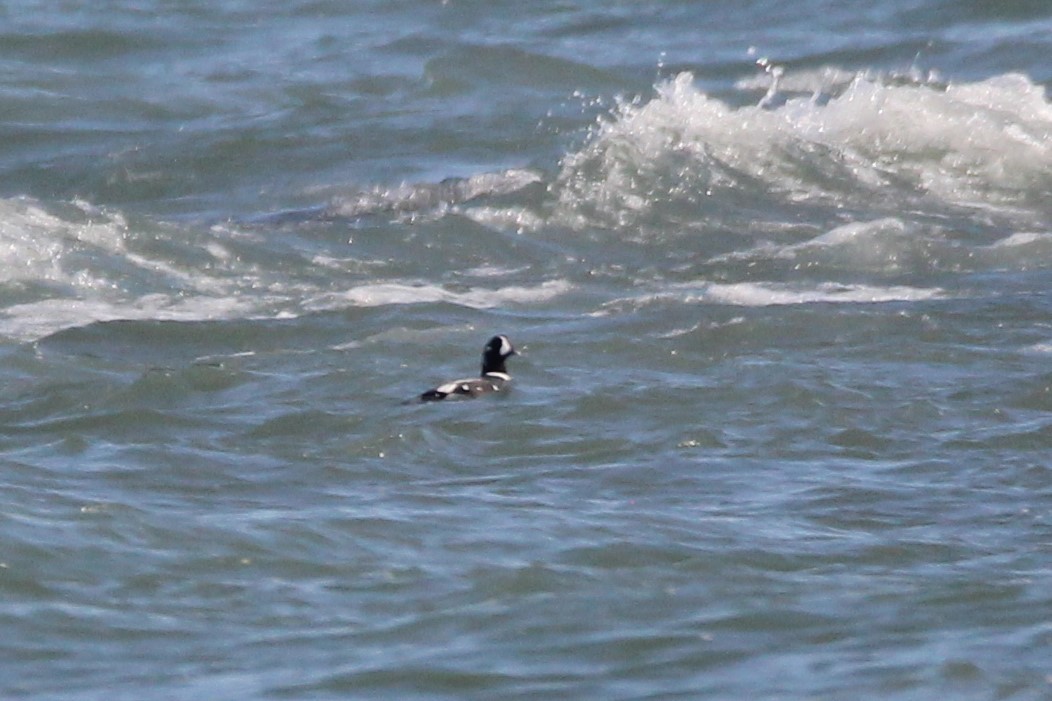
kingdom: Animalia
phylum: Chordata
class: Aves
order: Anseriformes
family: Anatidae
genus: Histrionicus
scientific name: Histrionicus histrionicus
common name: Harlequin duck
